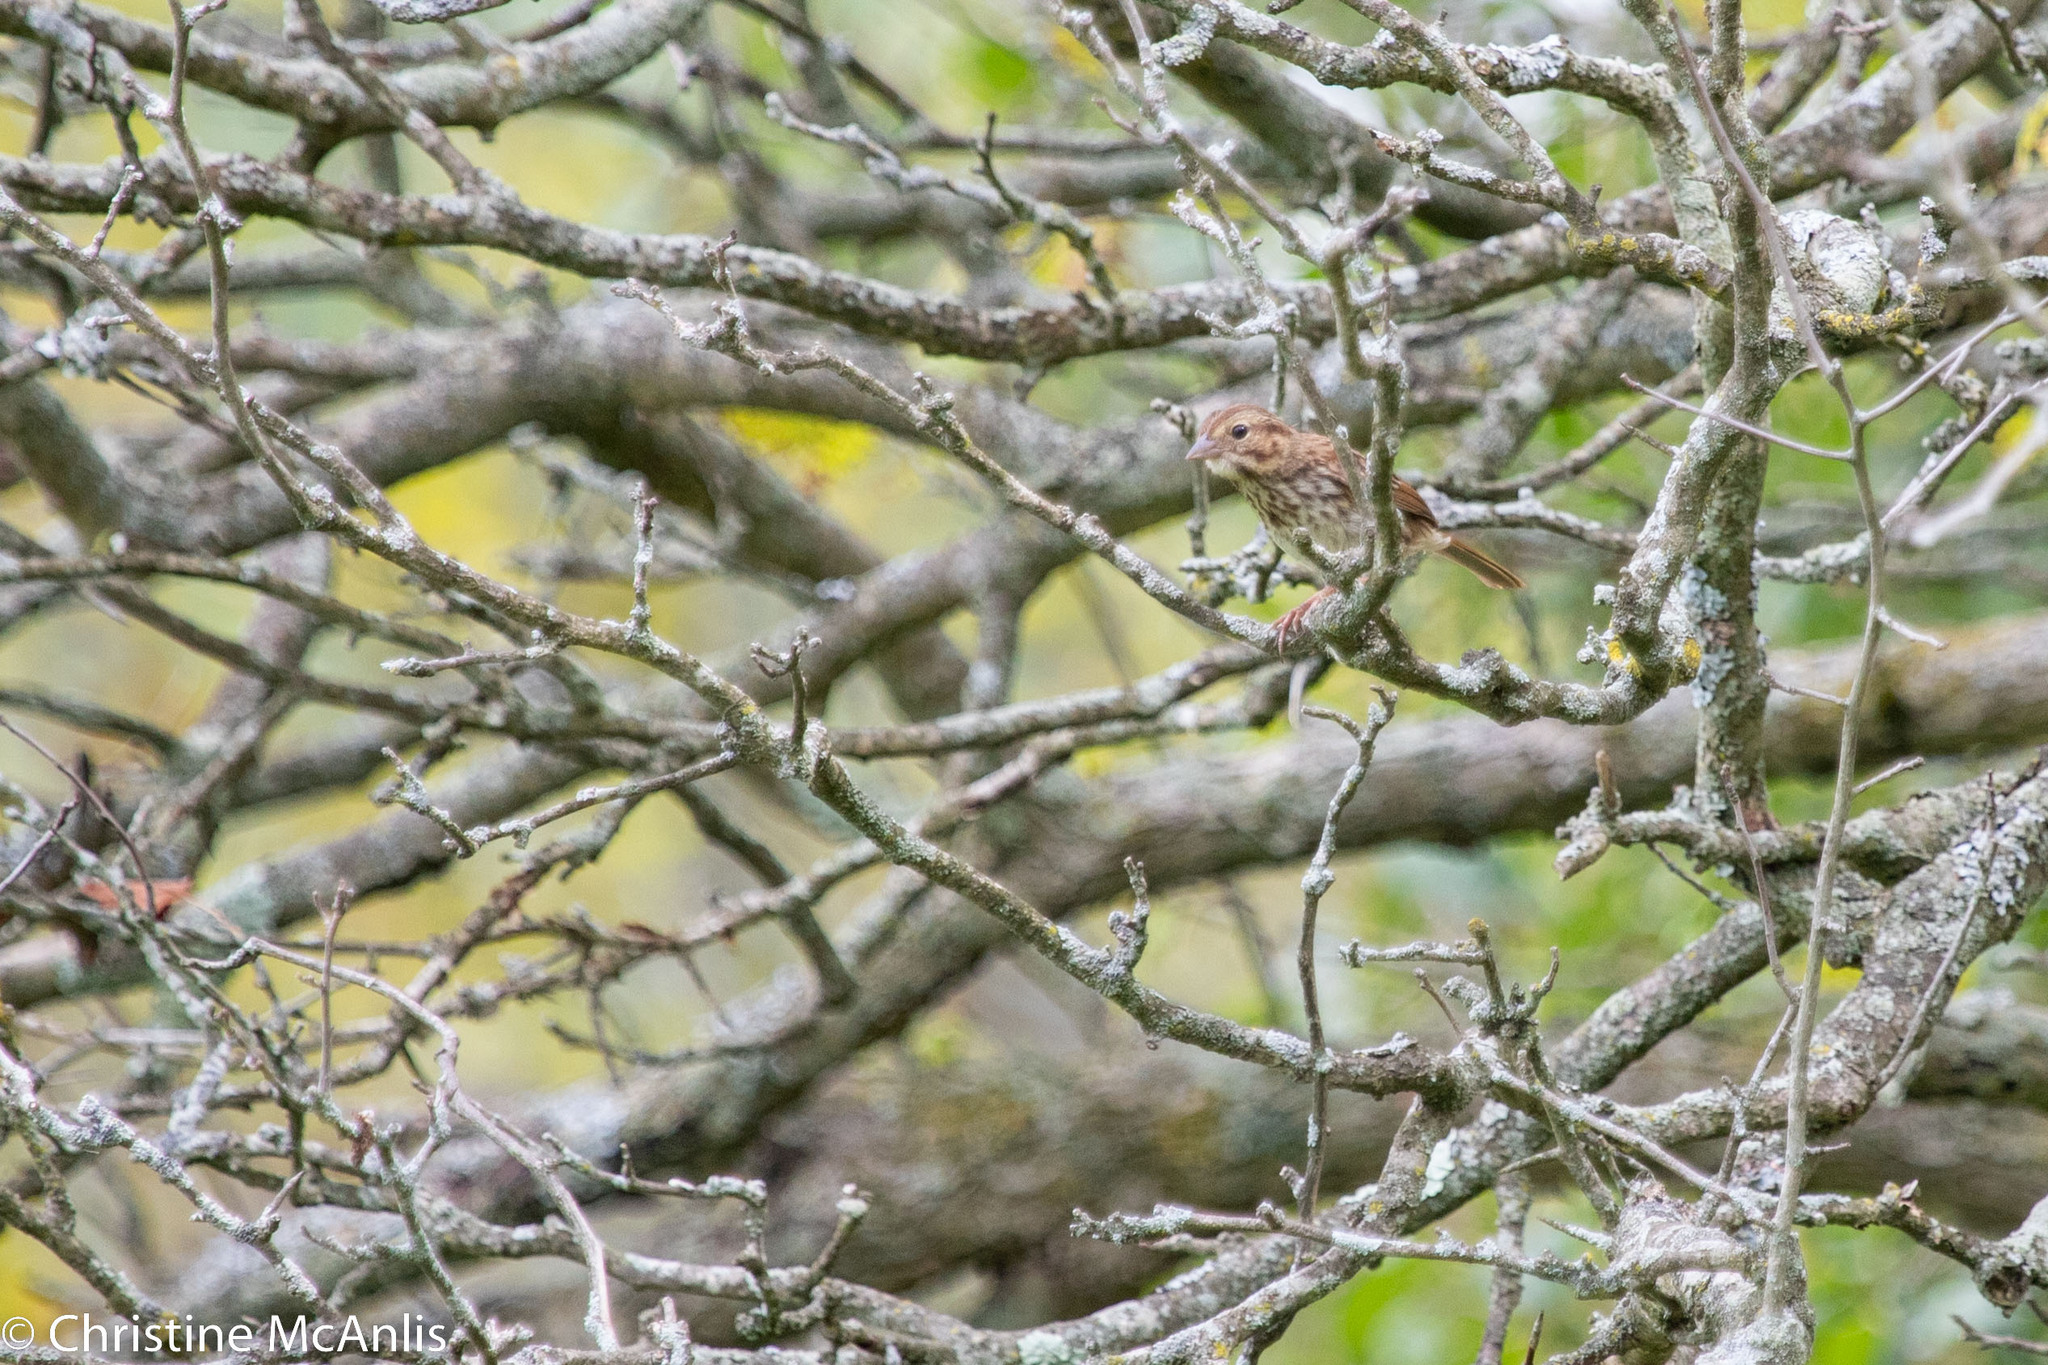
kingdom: Animalia
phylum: Chordata
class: Aves
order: Passeriformes
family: Passerellidae
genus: Melospiza
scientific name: Melospiza melodia
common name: Song sparrow
